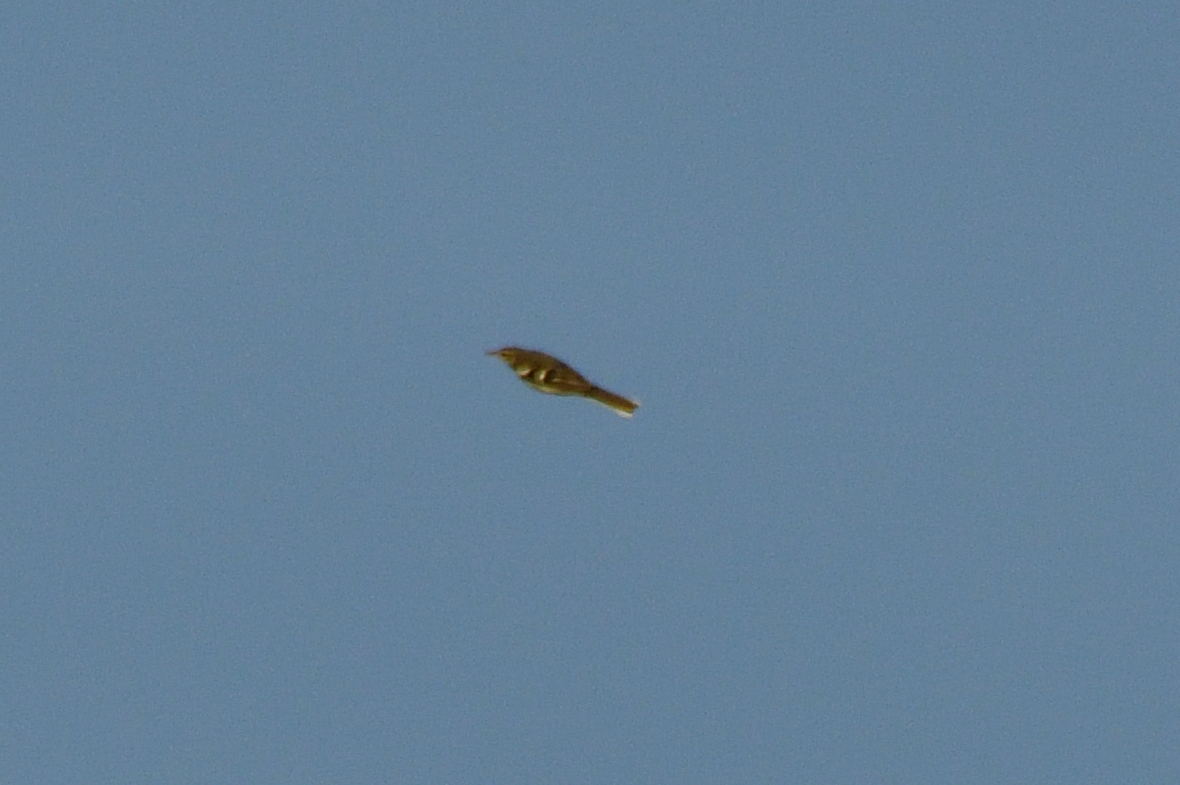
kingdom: Animalia
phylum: Chordata
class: Aves
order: Passeriformes
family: Motacillidae
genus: Dendronanthus
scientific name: Dendronanthus indicus
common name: Forest wagtail
